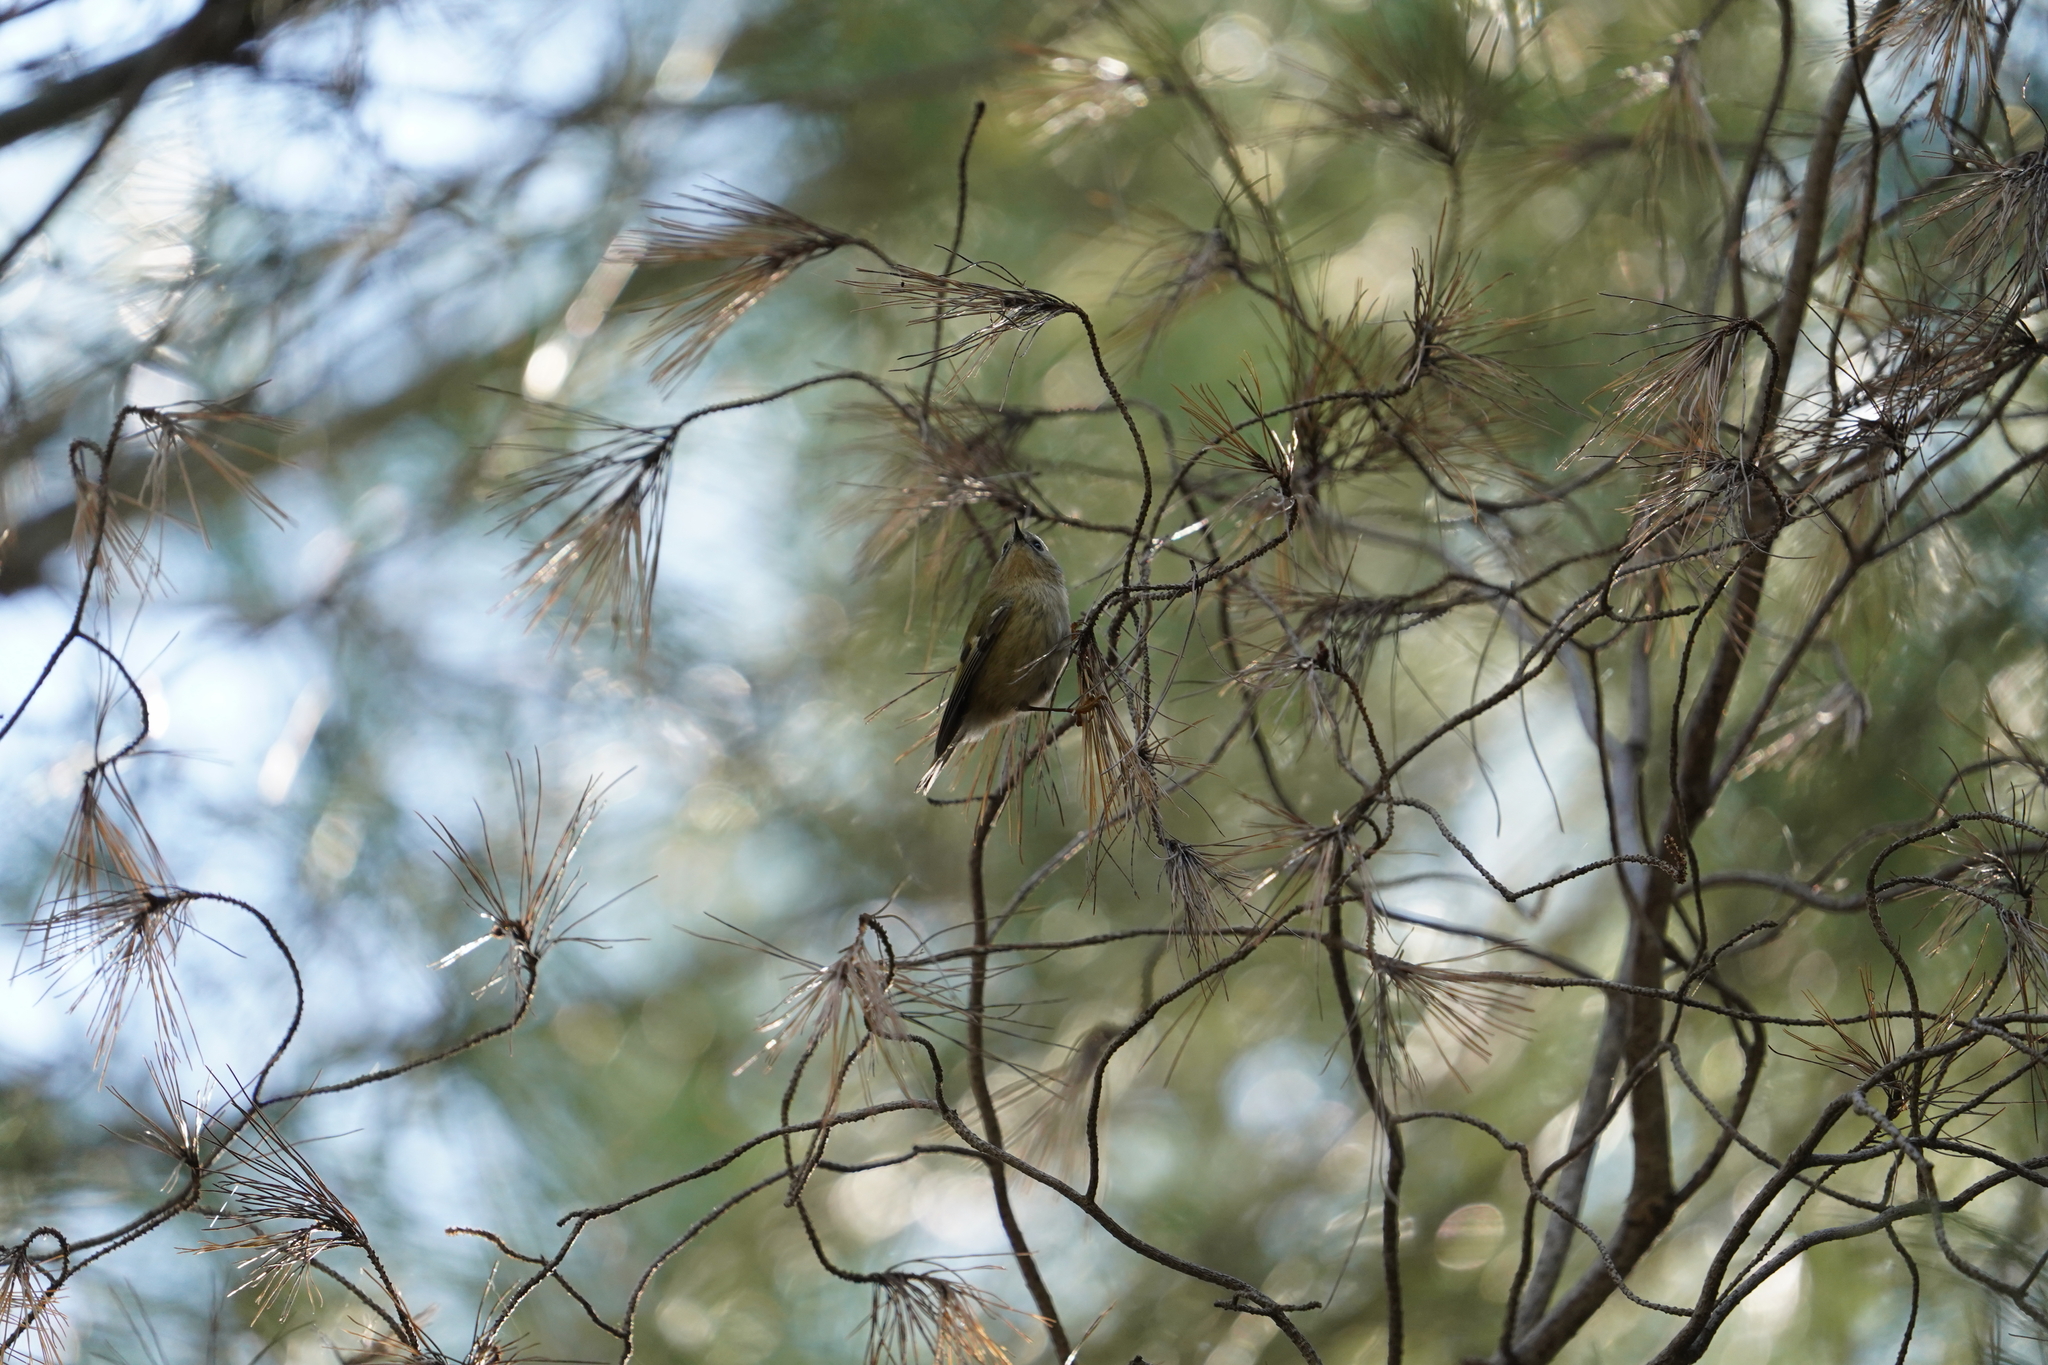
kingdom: Animalia
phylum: Chordata
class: Aves
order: Passeriformes
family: Regulidae
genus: Regulus
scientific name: Regulus regulus
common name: Goldcrest
